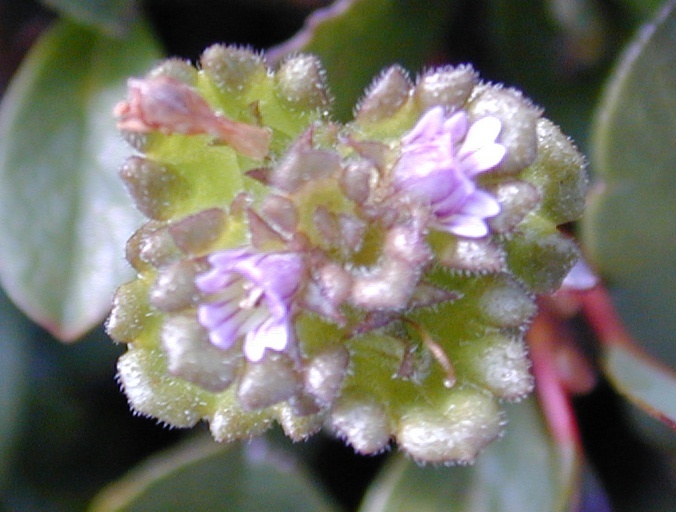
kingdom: Plantae
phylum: Tracheophyta
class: Magnoliopsida
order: Lamiales
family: Orobanchaceae
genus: Euphrasia
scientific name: Euphrasia oakesii
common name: Oakes' eyebright
